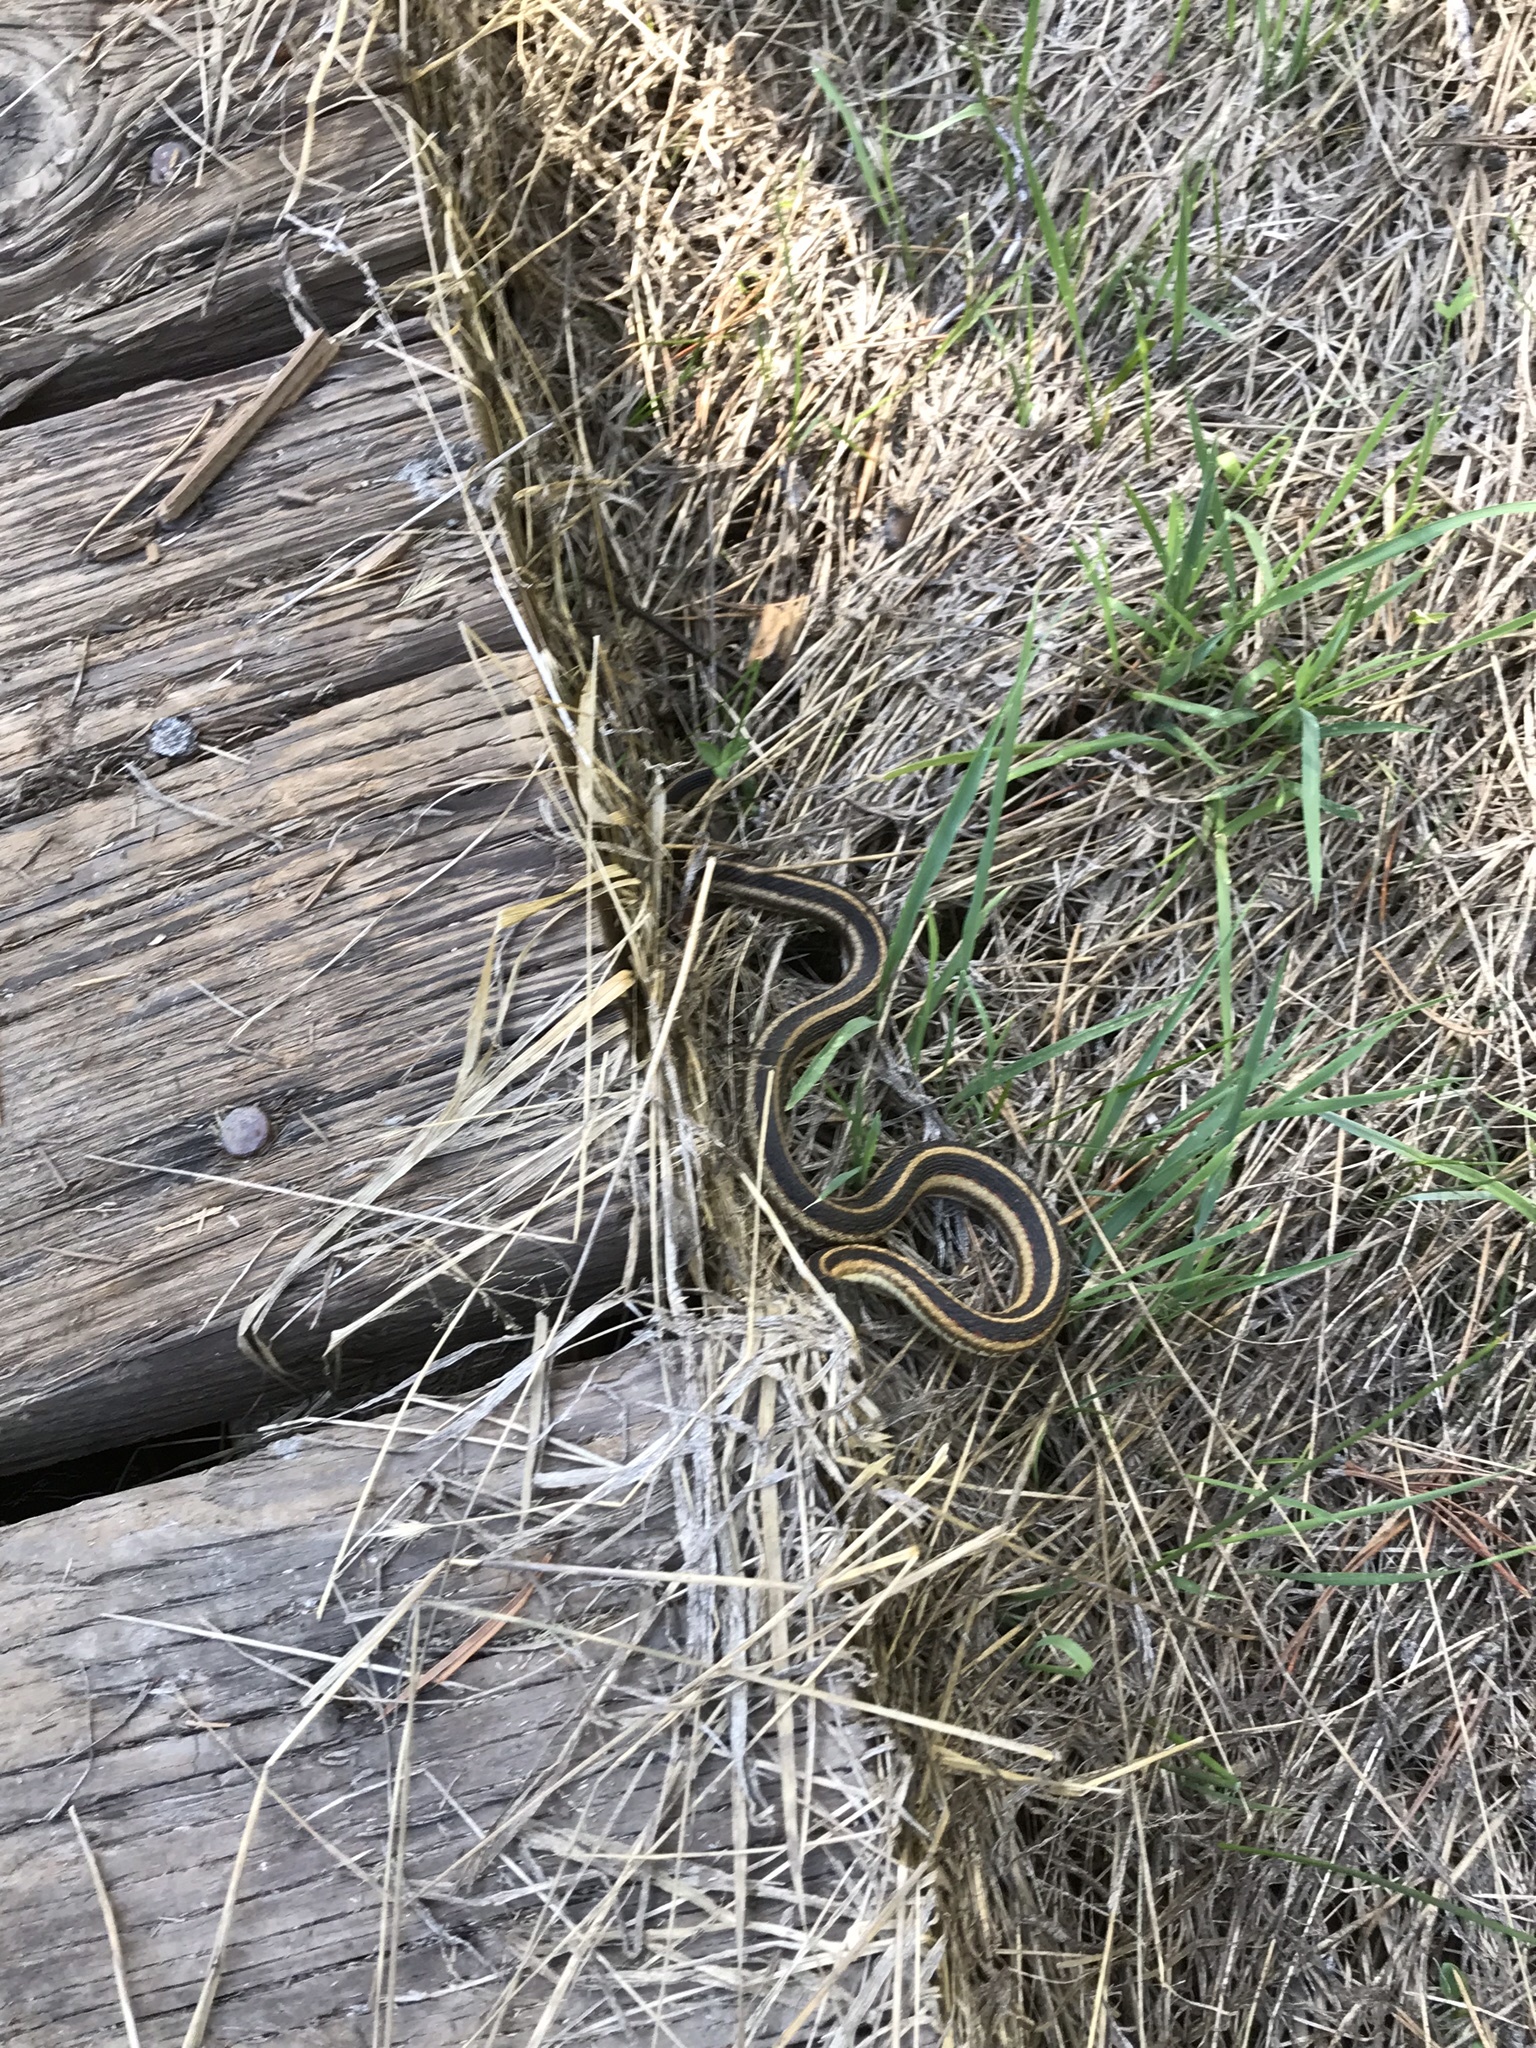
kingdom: Animalia
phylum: Chordata
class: Squamata
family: Colubridae
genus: Thamnophis
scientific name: Thamnophis sirtalis
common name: Common garter snake
